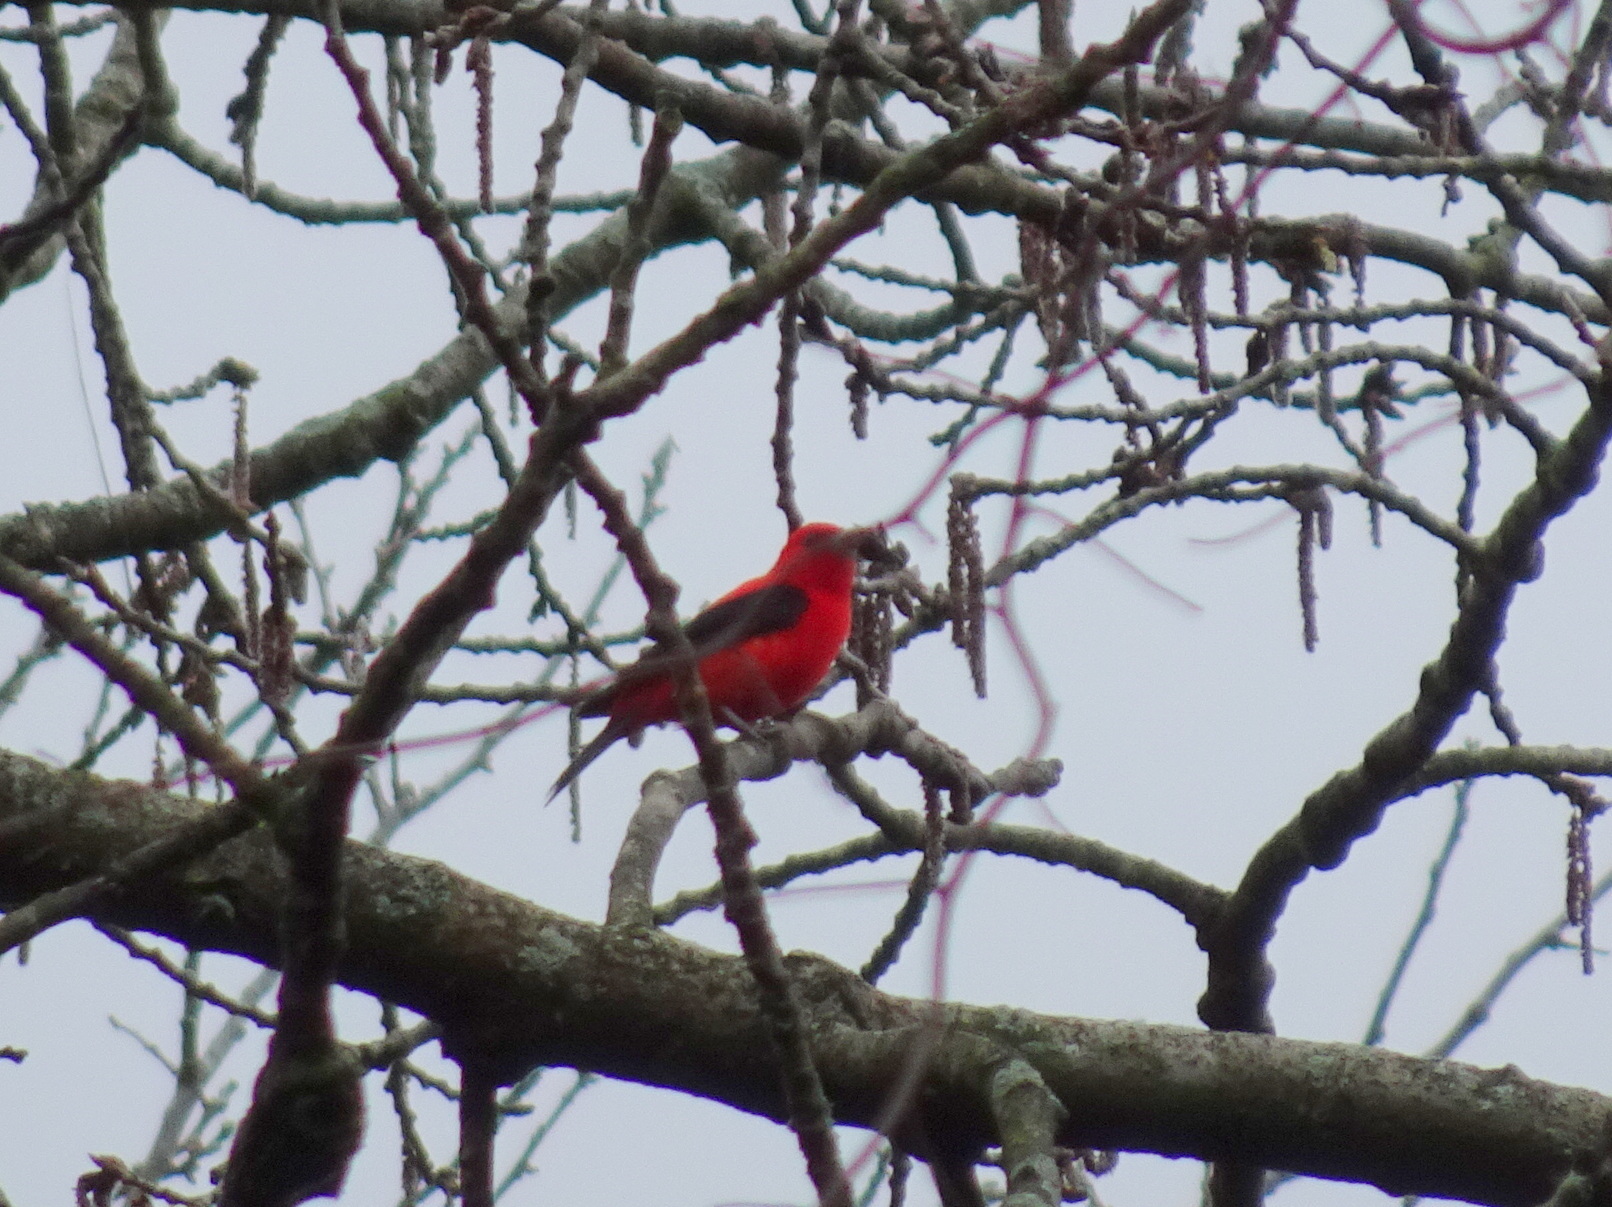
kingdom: Animalia
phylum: Chordata
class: Aves
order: Passeriformes
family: Cardinalidae
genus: Piranga
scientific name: Piranga olivacea
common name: Scarlet tanager
